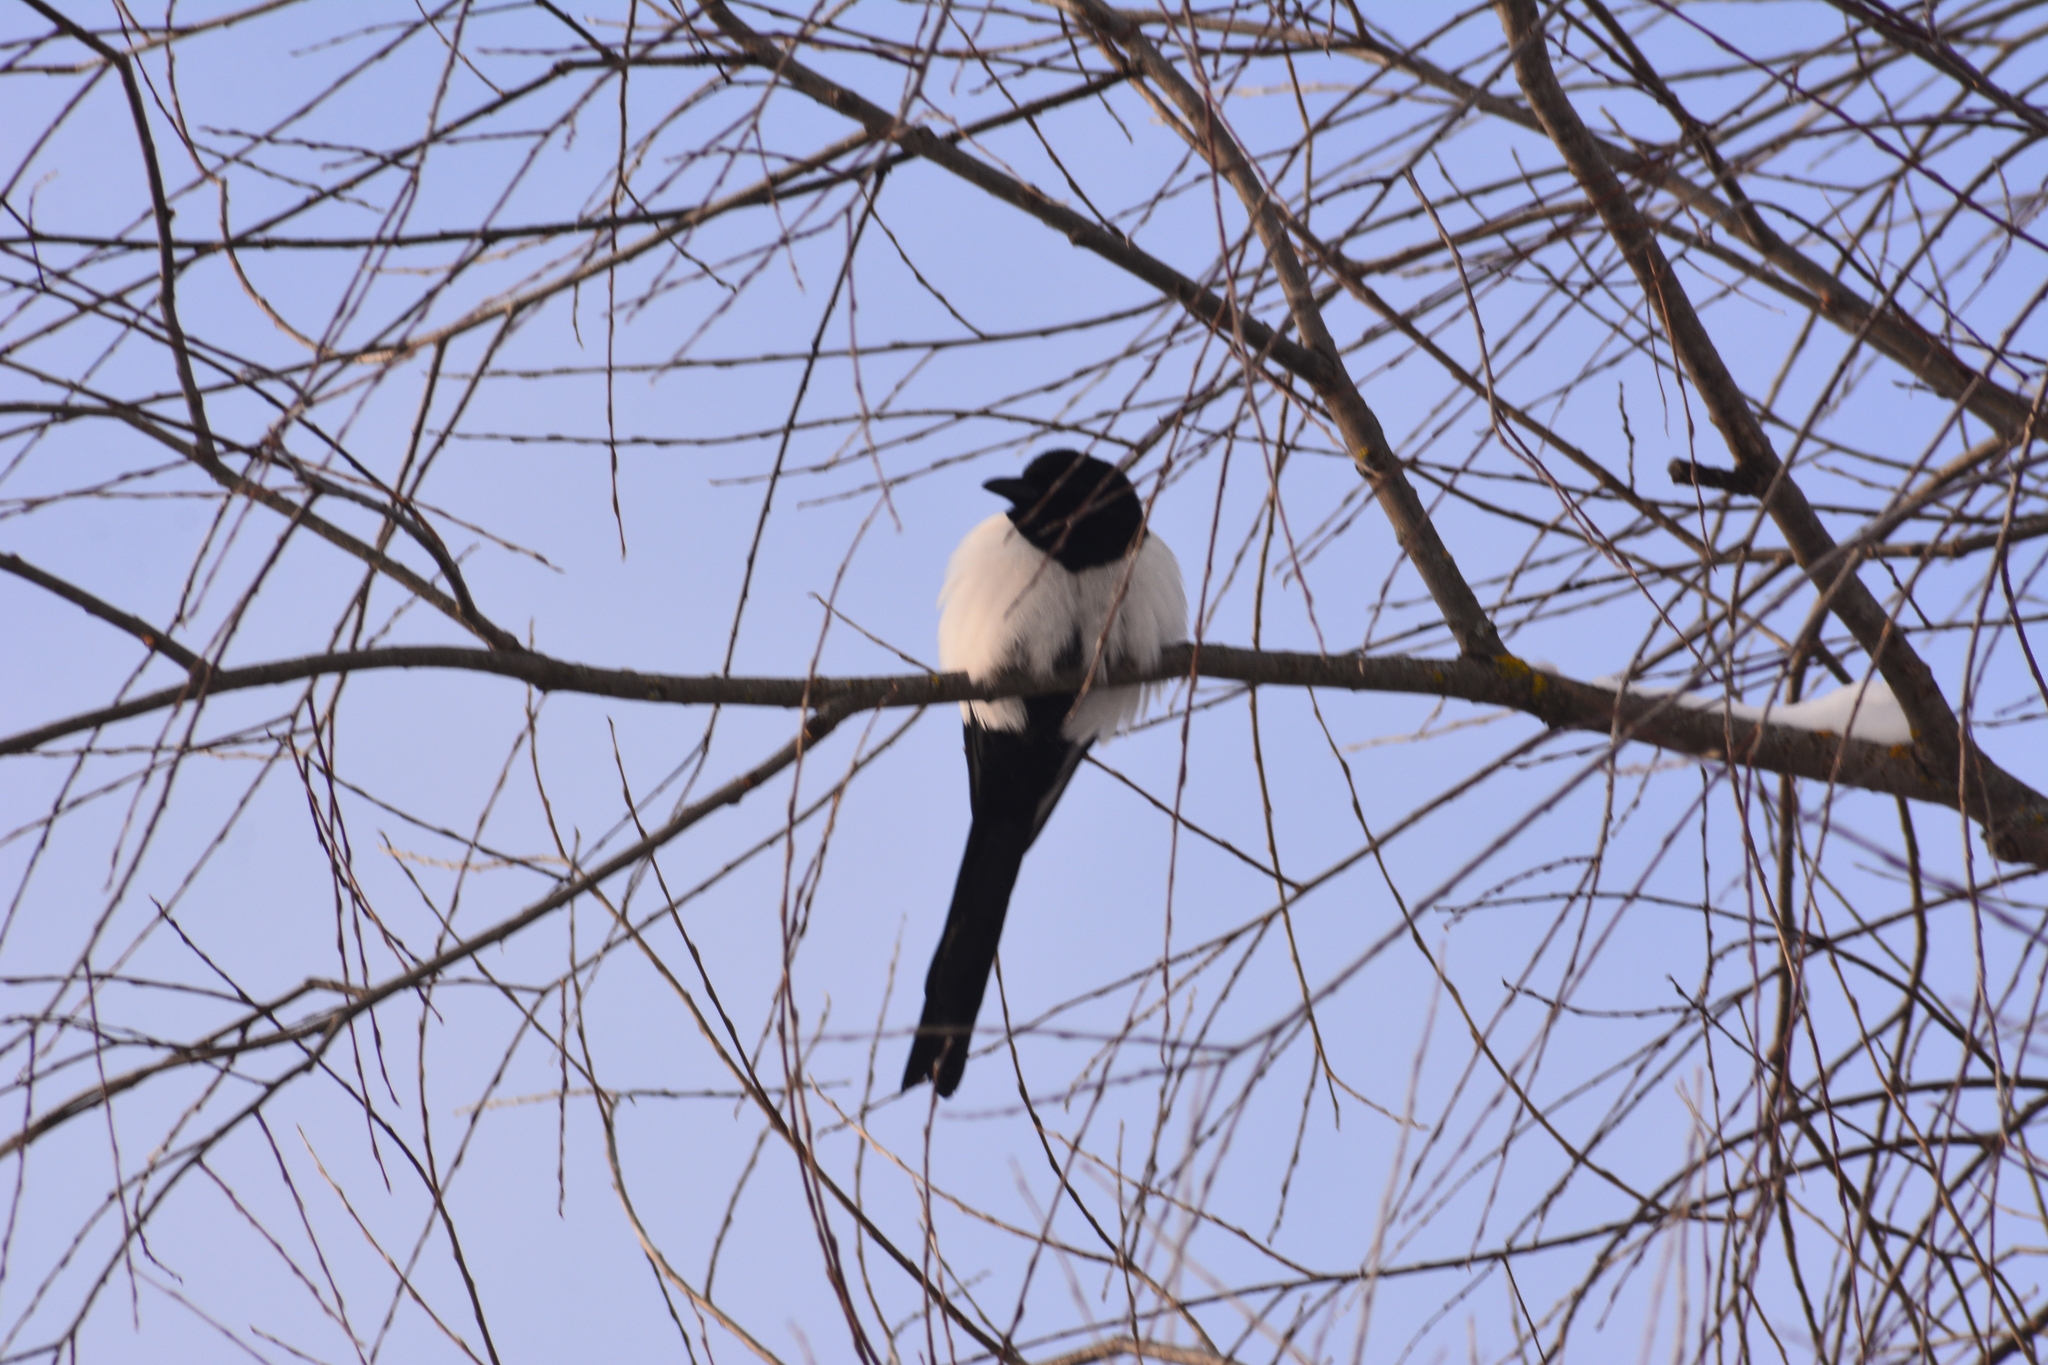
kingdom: Animalia
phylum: Chordata
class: Aves
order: Passeriformes
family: Corvidae
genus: Pica
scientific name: Pica pica
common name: Eurasian magpie
